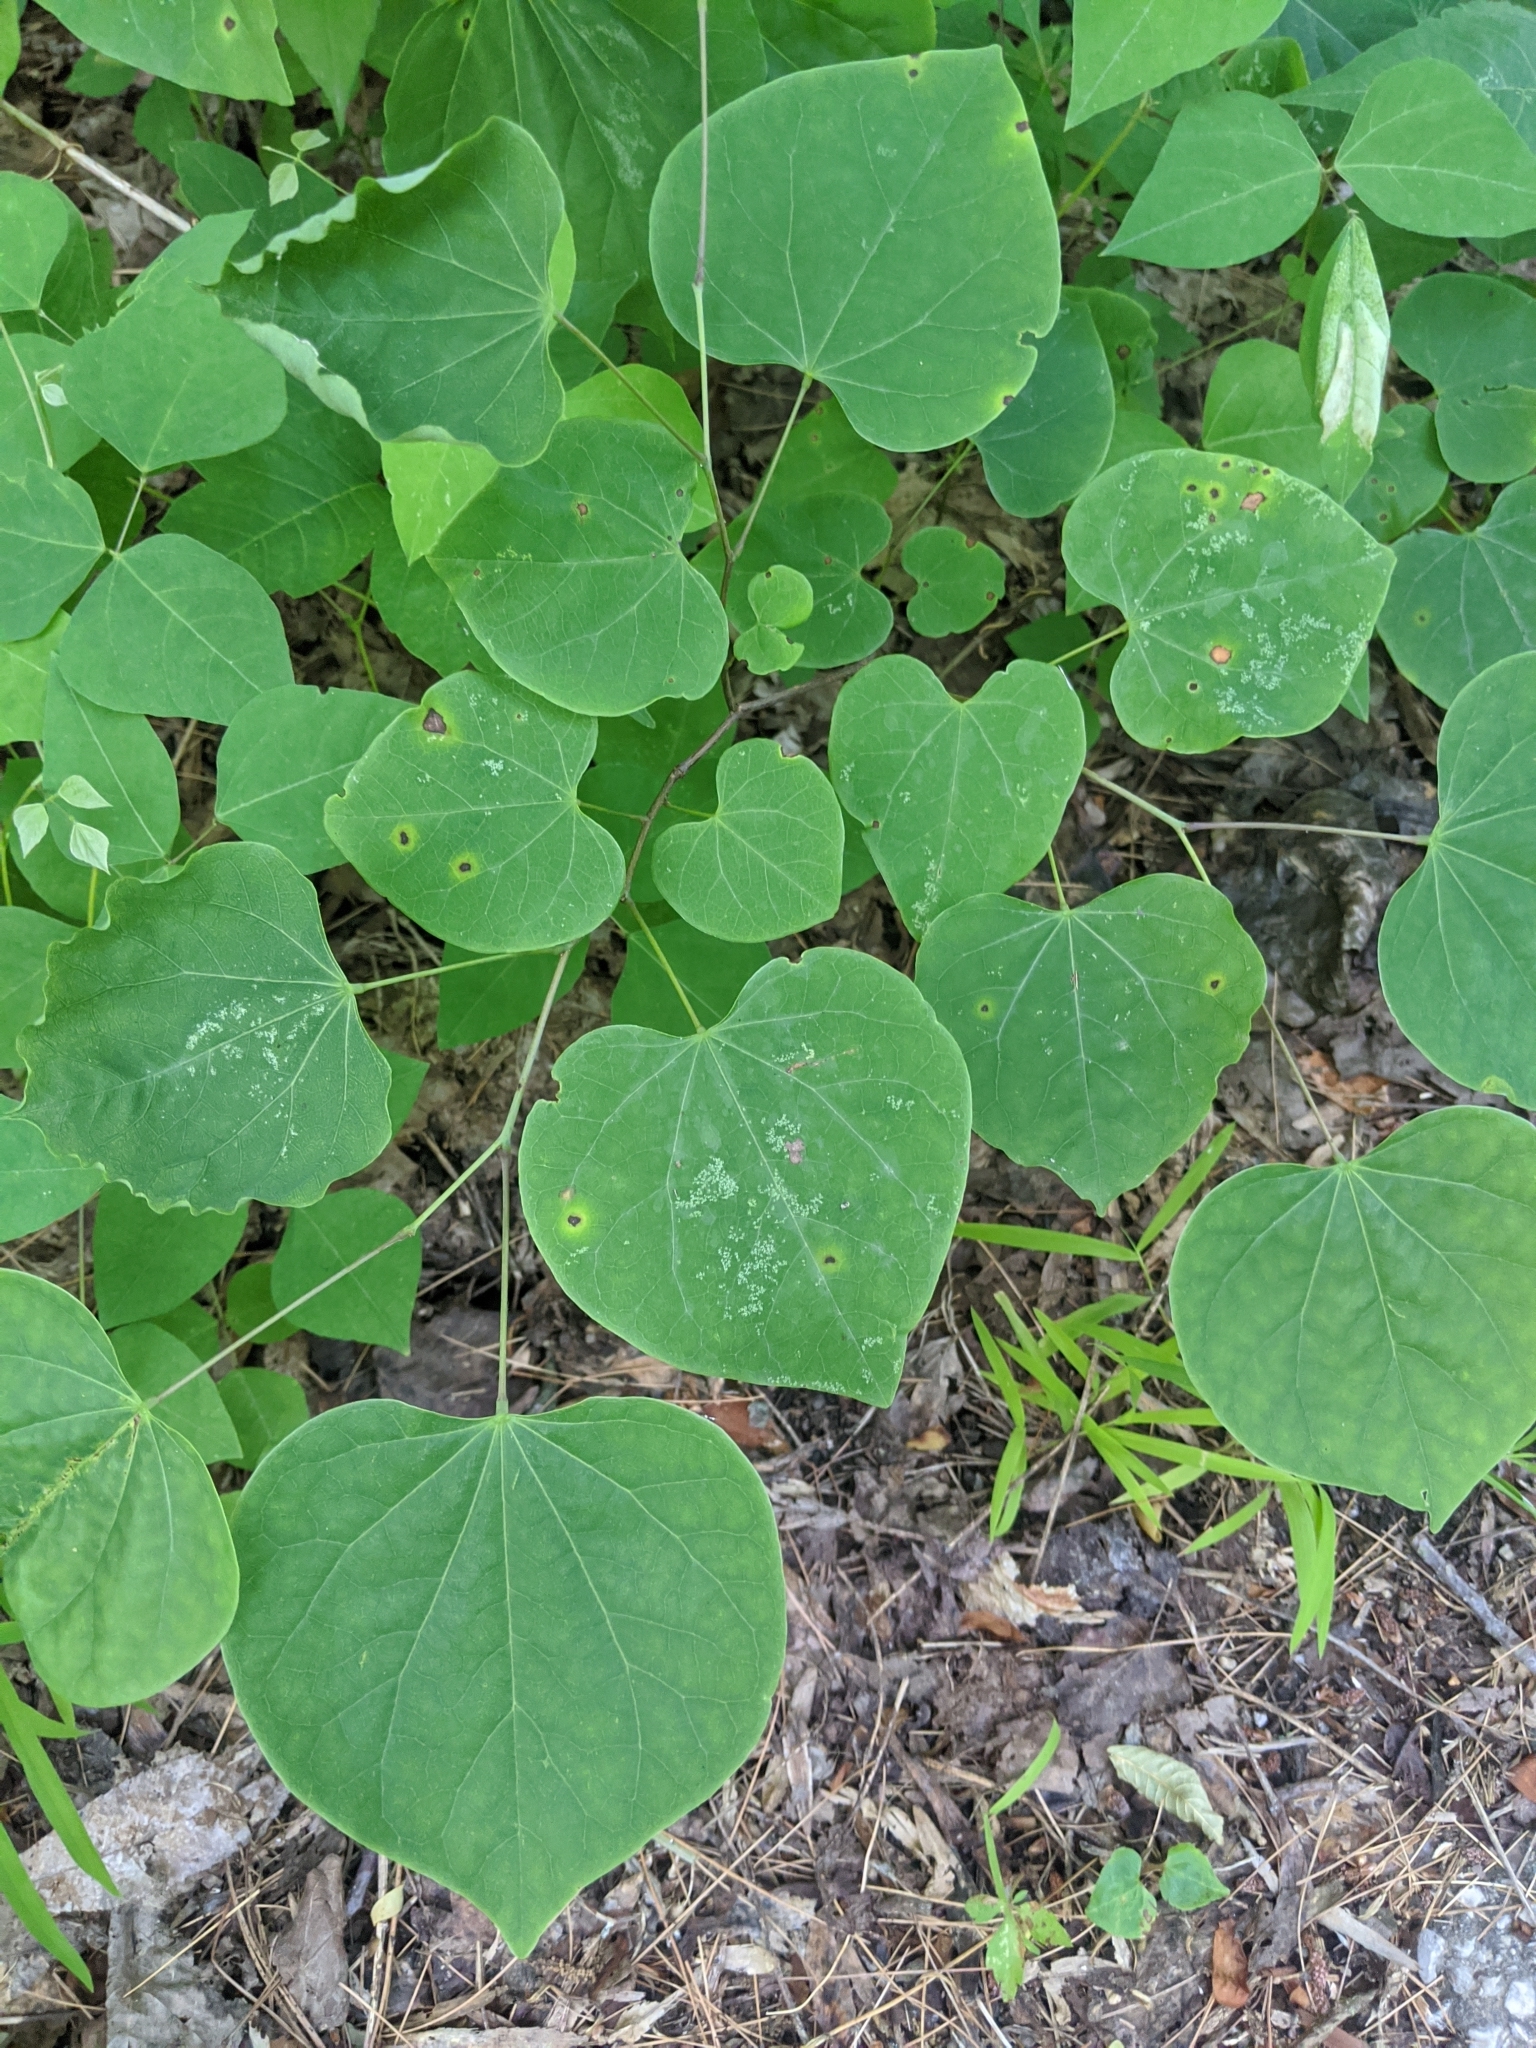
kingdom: Plantae
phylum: Tracheophyta
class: Magnoliopsida
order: Fabales
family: Fabaceae
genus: Cercis
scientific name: Cercis canadensis
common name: Eastern redbud
